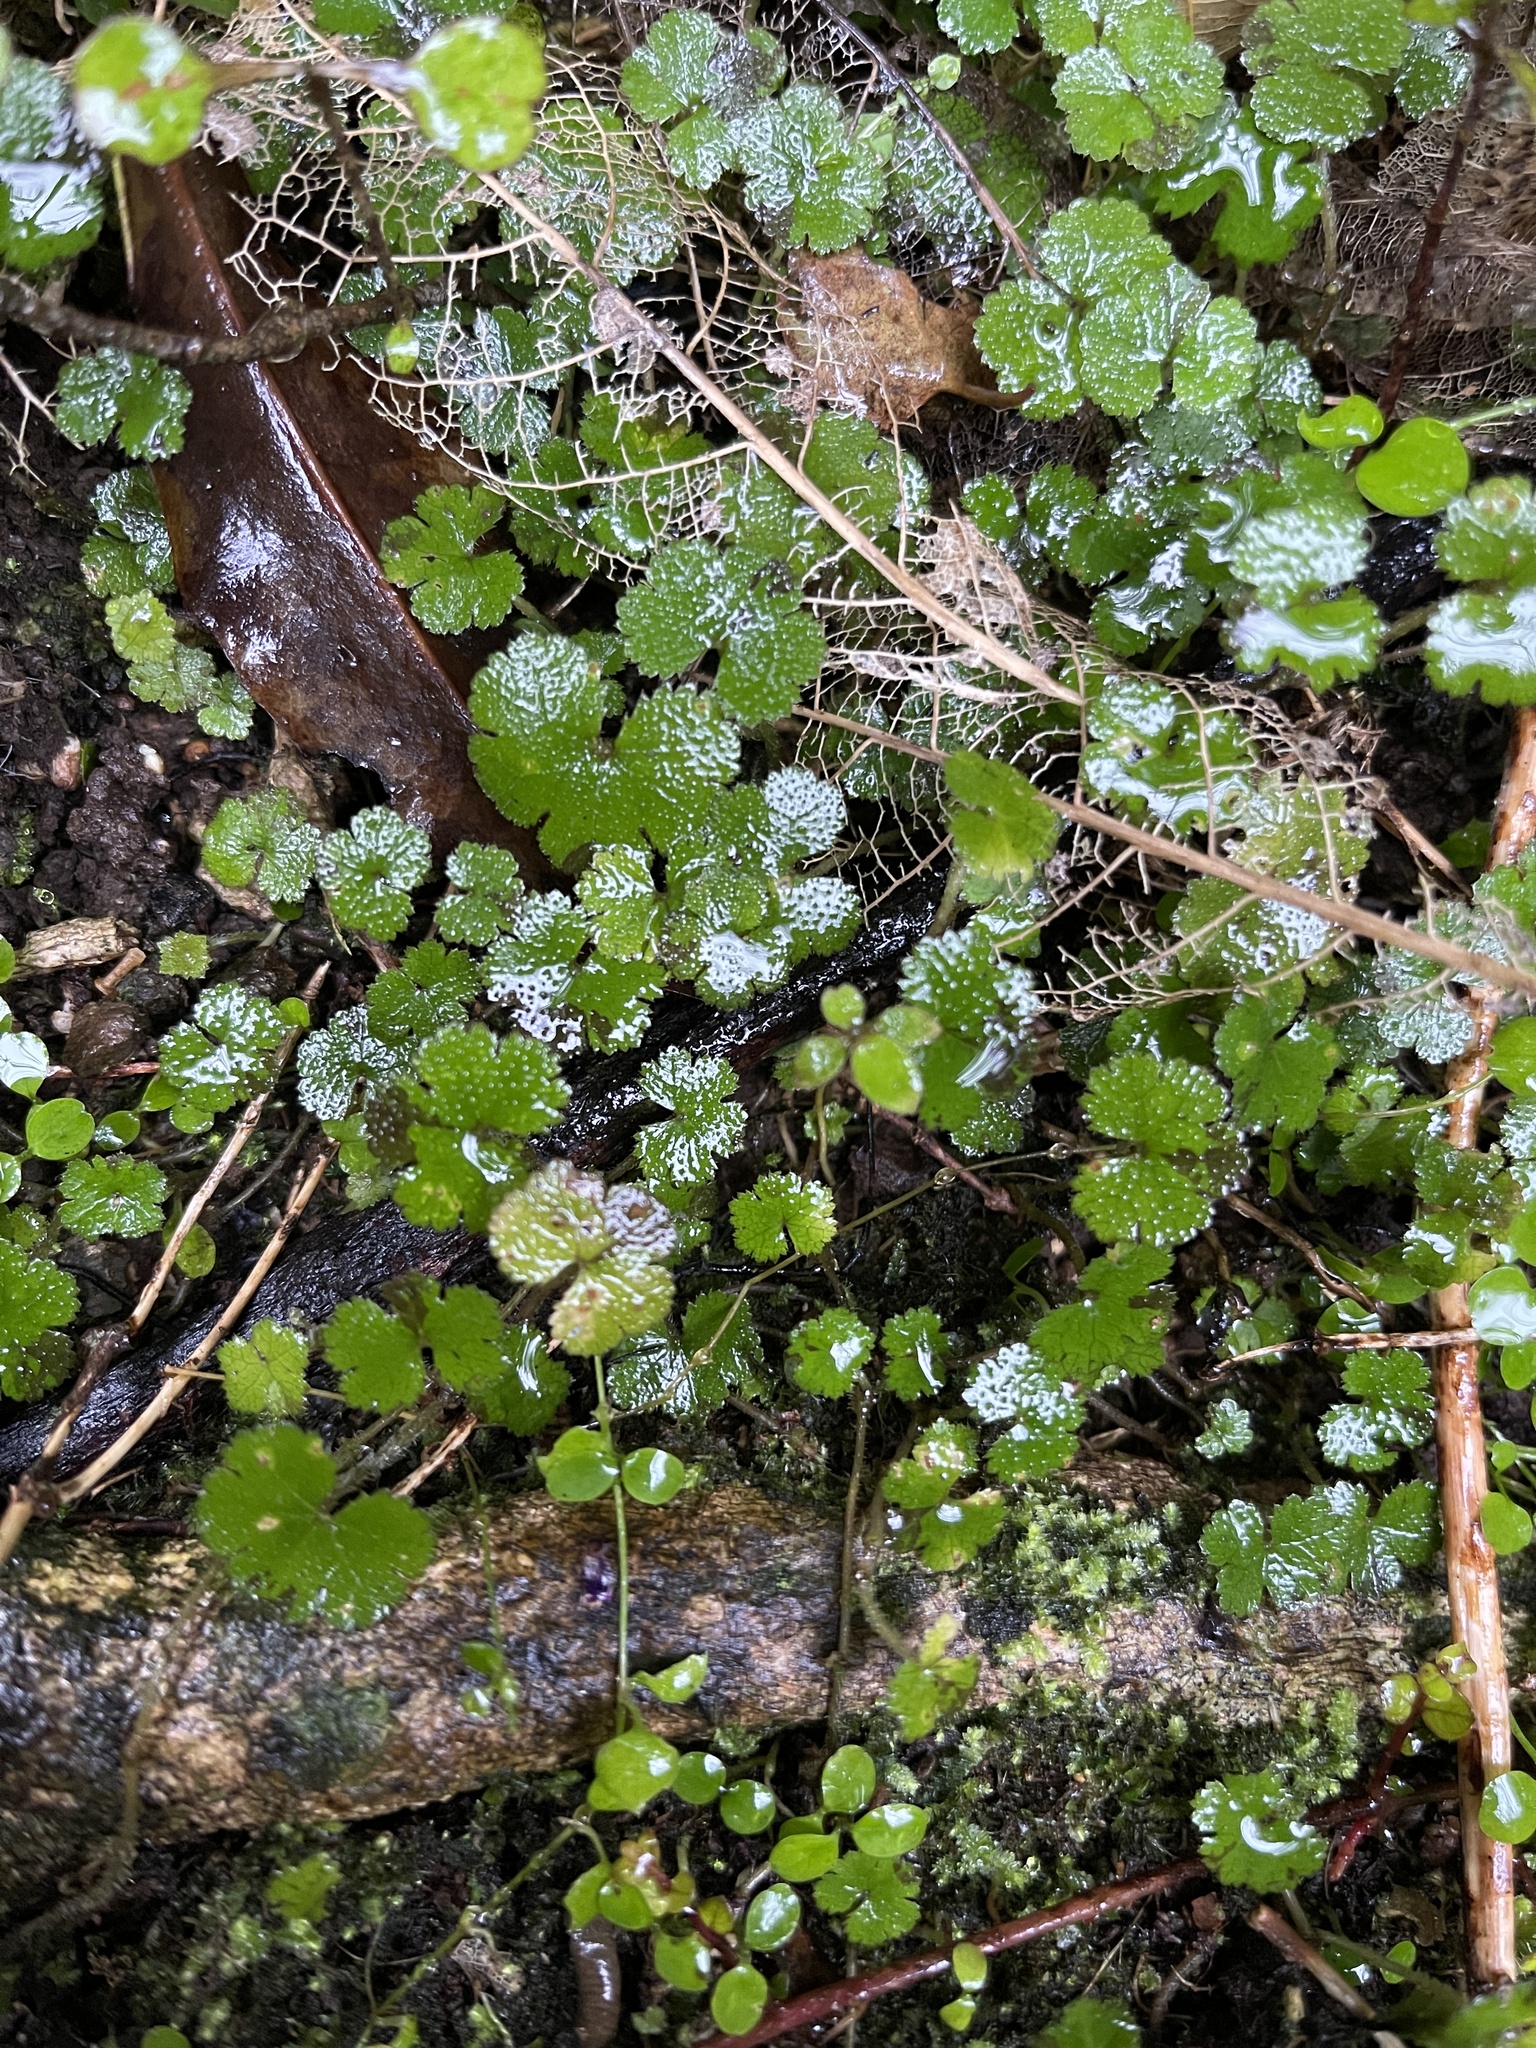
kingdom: Plantae
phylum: Tracheophyta
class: Magnoliopsida
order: Apiales
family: Araliaceae
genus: Hydrocotyle
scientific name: Hydrocotyle elongata
